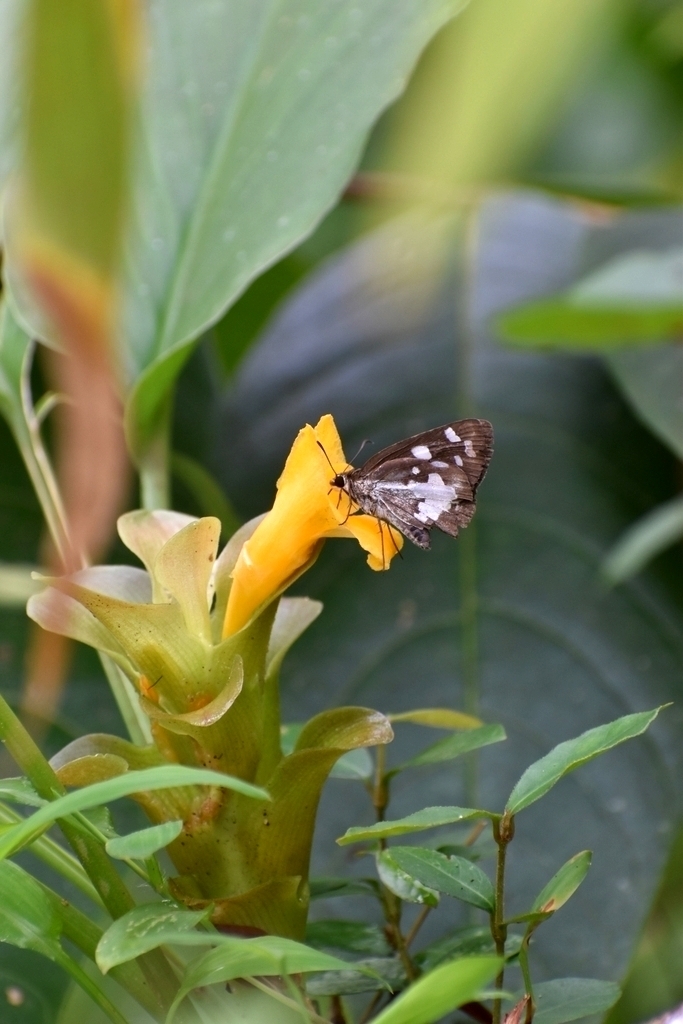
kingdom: Animalia
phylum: Arthropoda
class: Insecta
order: Lepidoptera
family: Hesperiidae
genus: Udaspes
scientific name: Udaspes folus
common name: Grass demon
